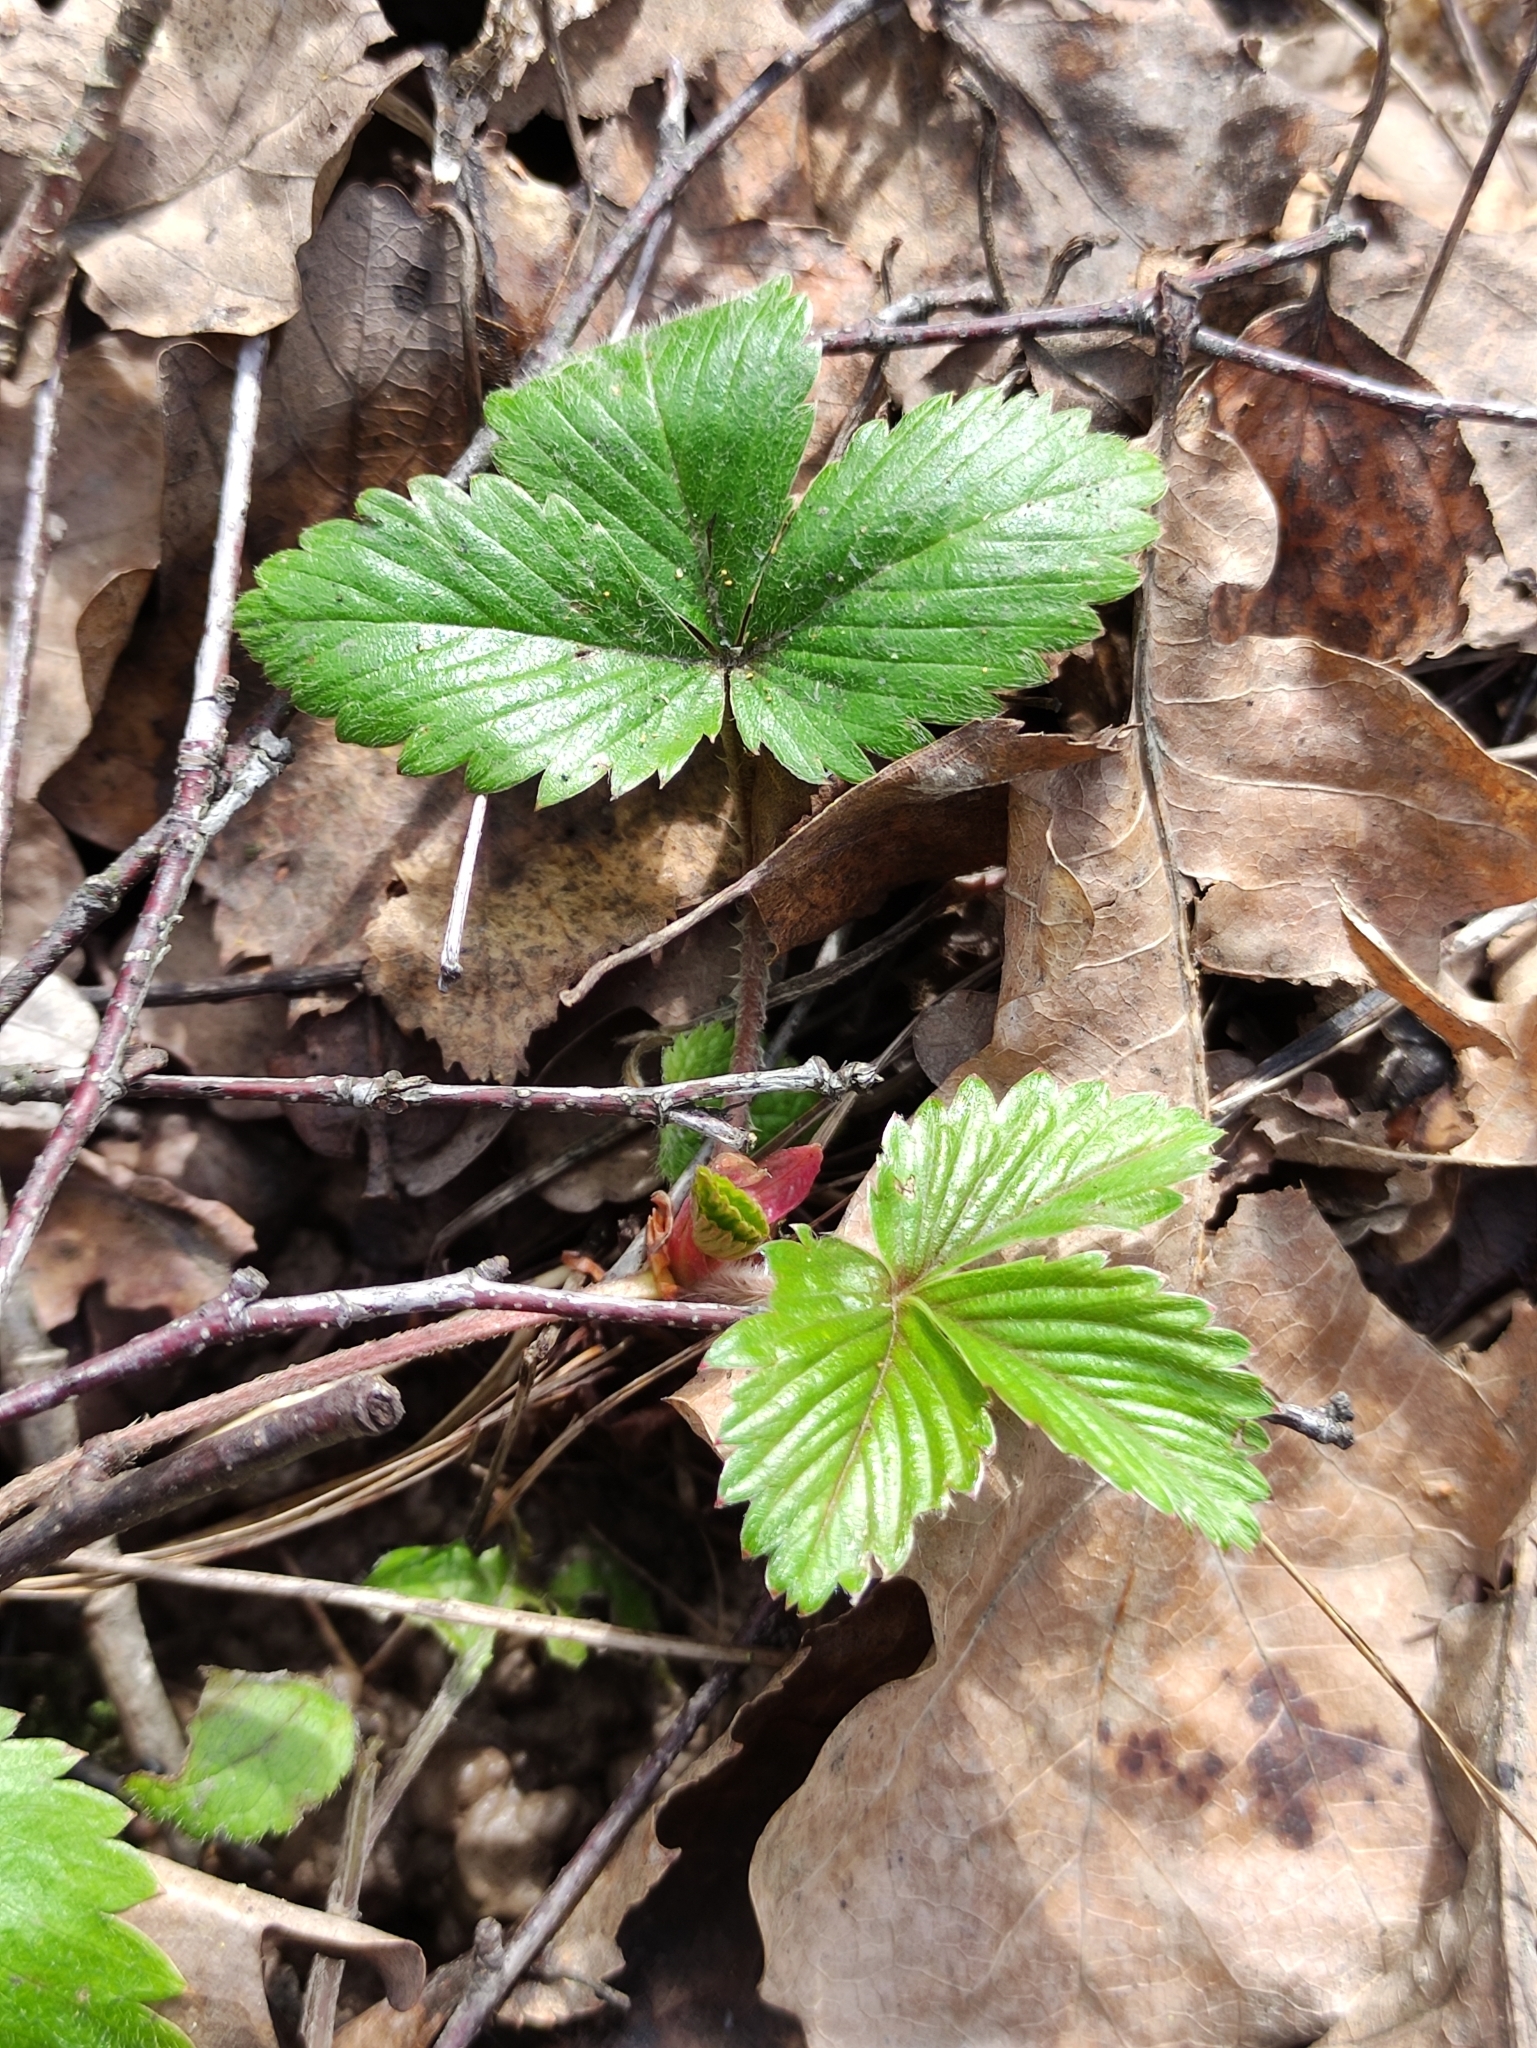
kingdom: Plantae
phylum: Tracheophyta
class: Magnoliopsida
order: Rosales
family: Rosaceae
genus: Fragaria
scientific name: Fragaria vesca
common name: Wild strawberry
